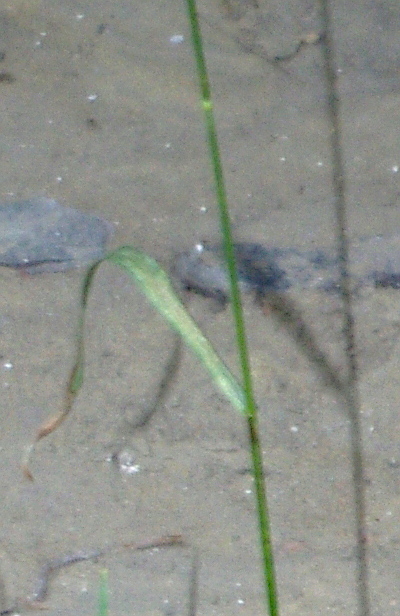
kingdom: Plantae
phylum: Tracheophyta
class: Liliopsida
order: Poales
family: Poaceae
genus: Bromus
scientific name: Bromus inermis
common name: Smooth brome
